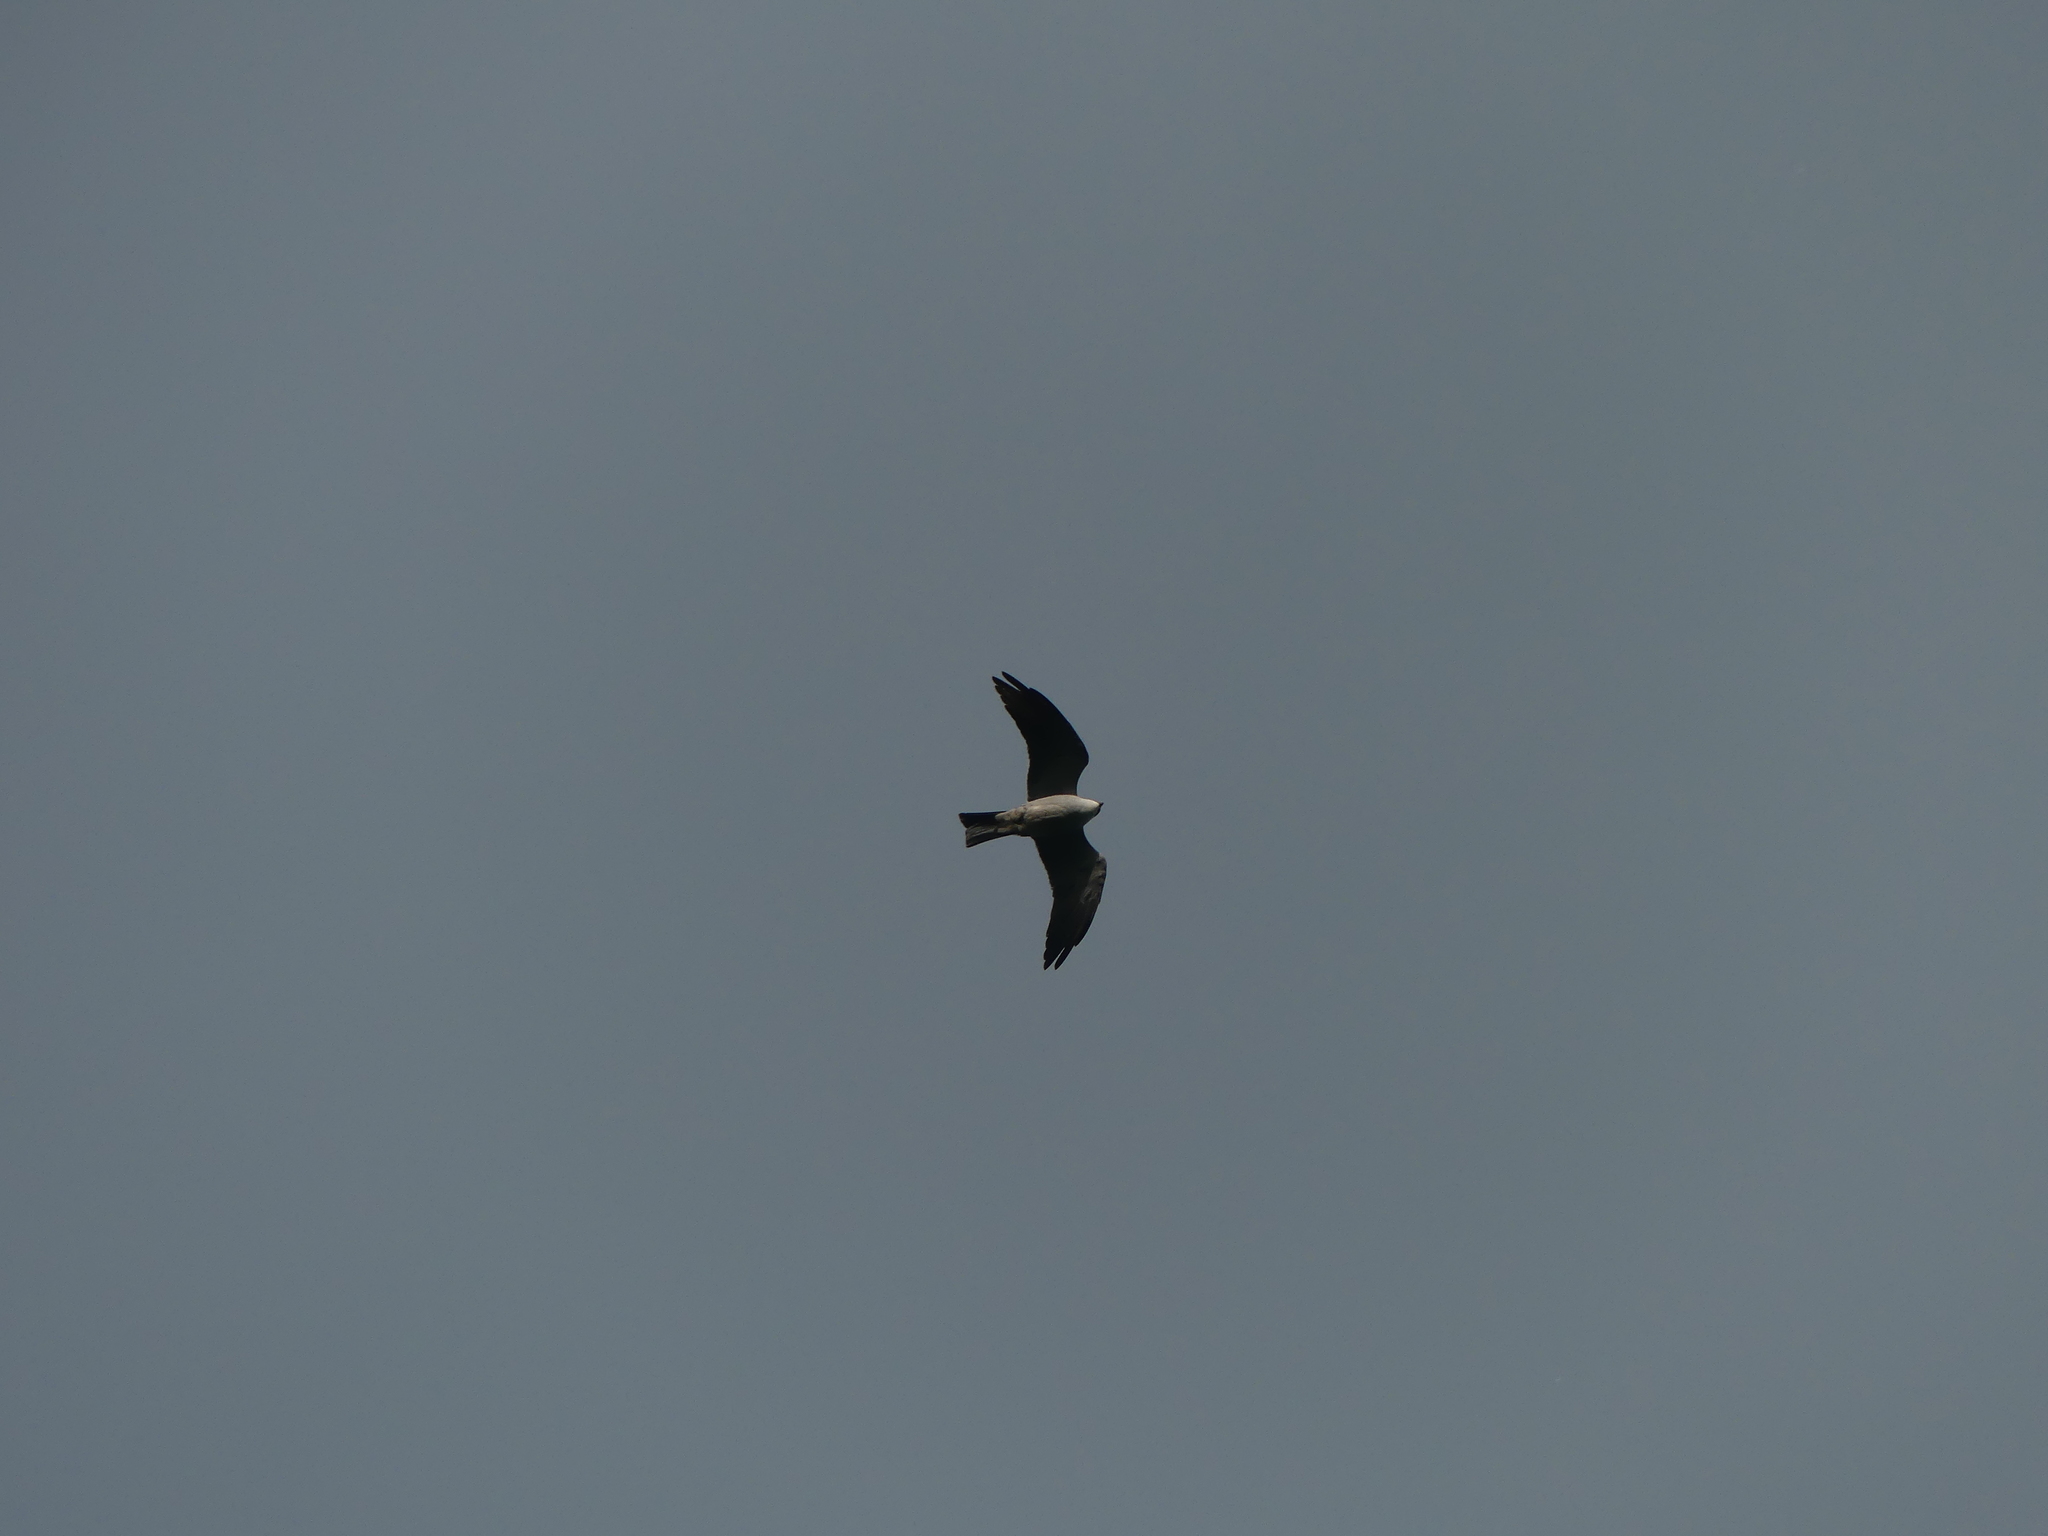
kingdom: Animalia
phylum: Chordata
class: Aves
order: Accipitriformes
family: Accipitridae
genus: Ictinia
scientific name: Ictinia mississippiensis
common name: Mississippi kite
